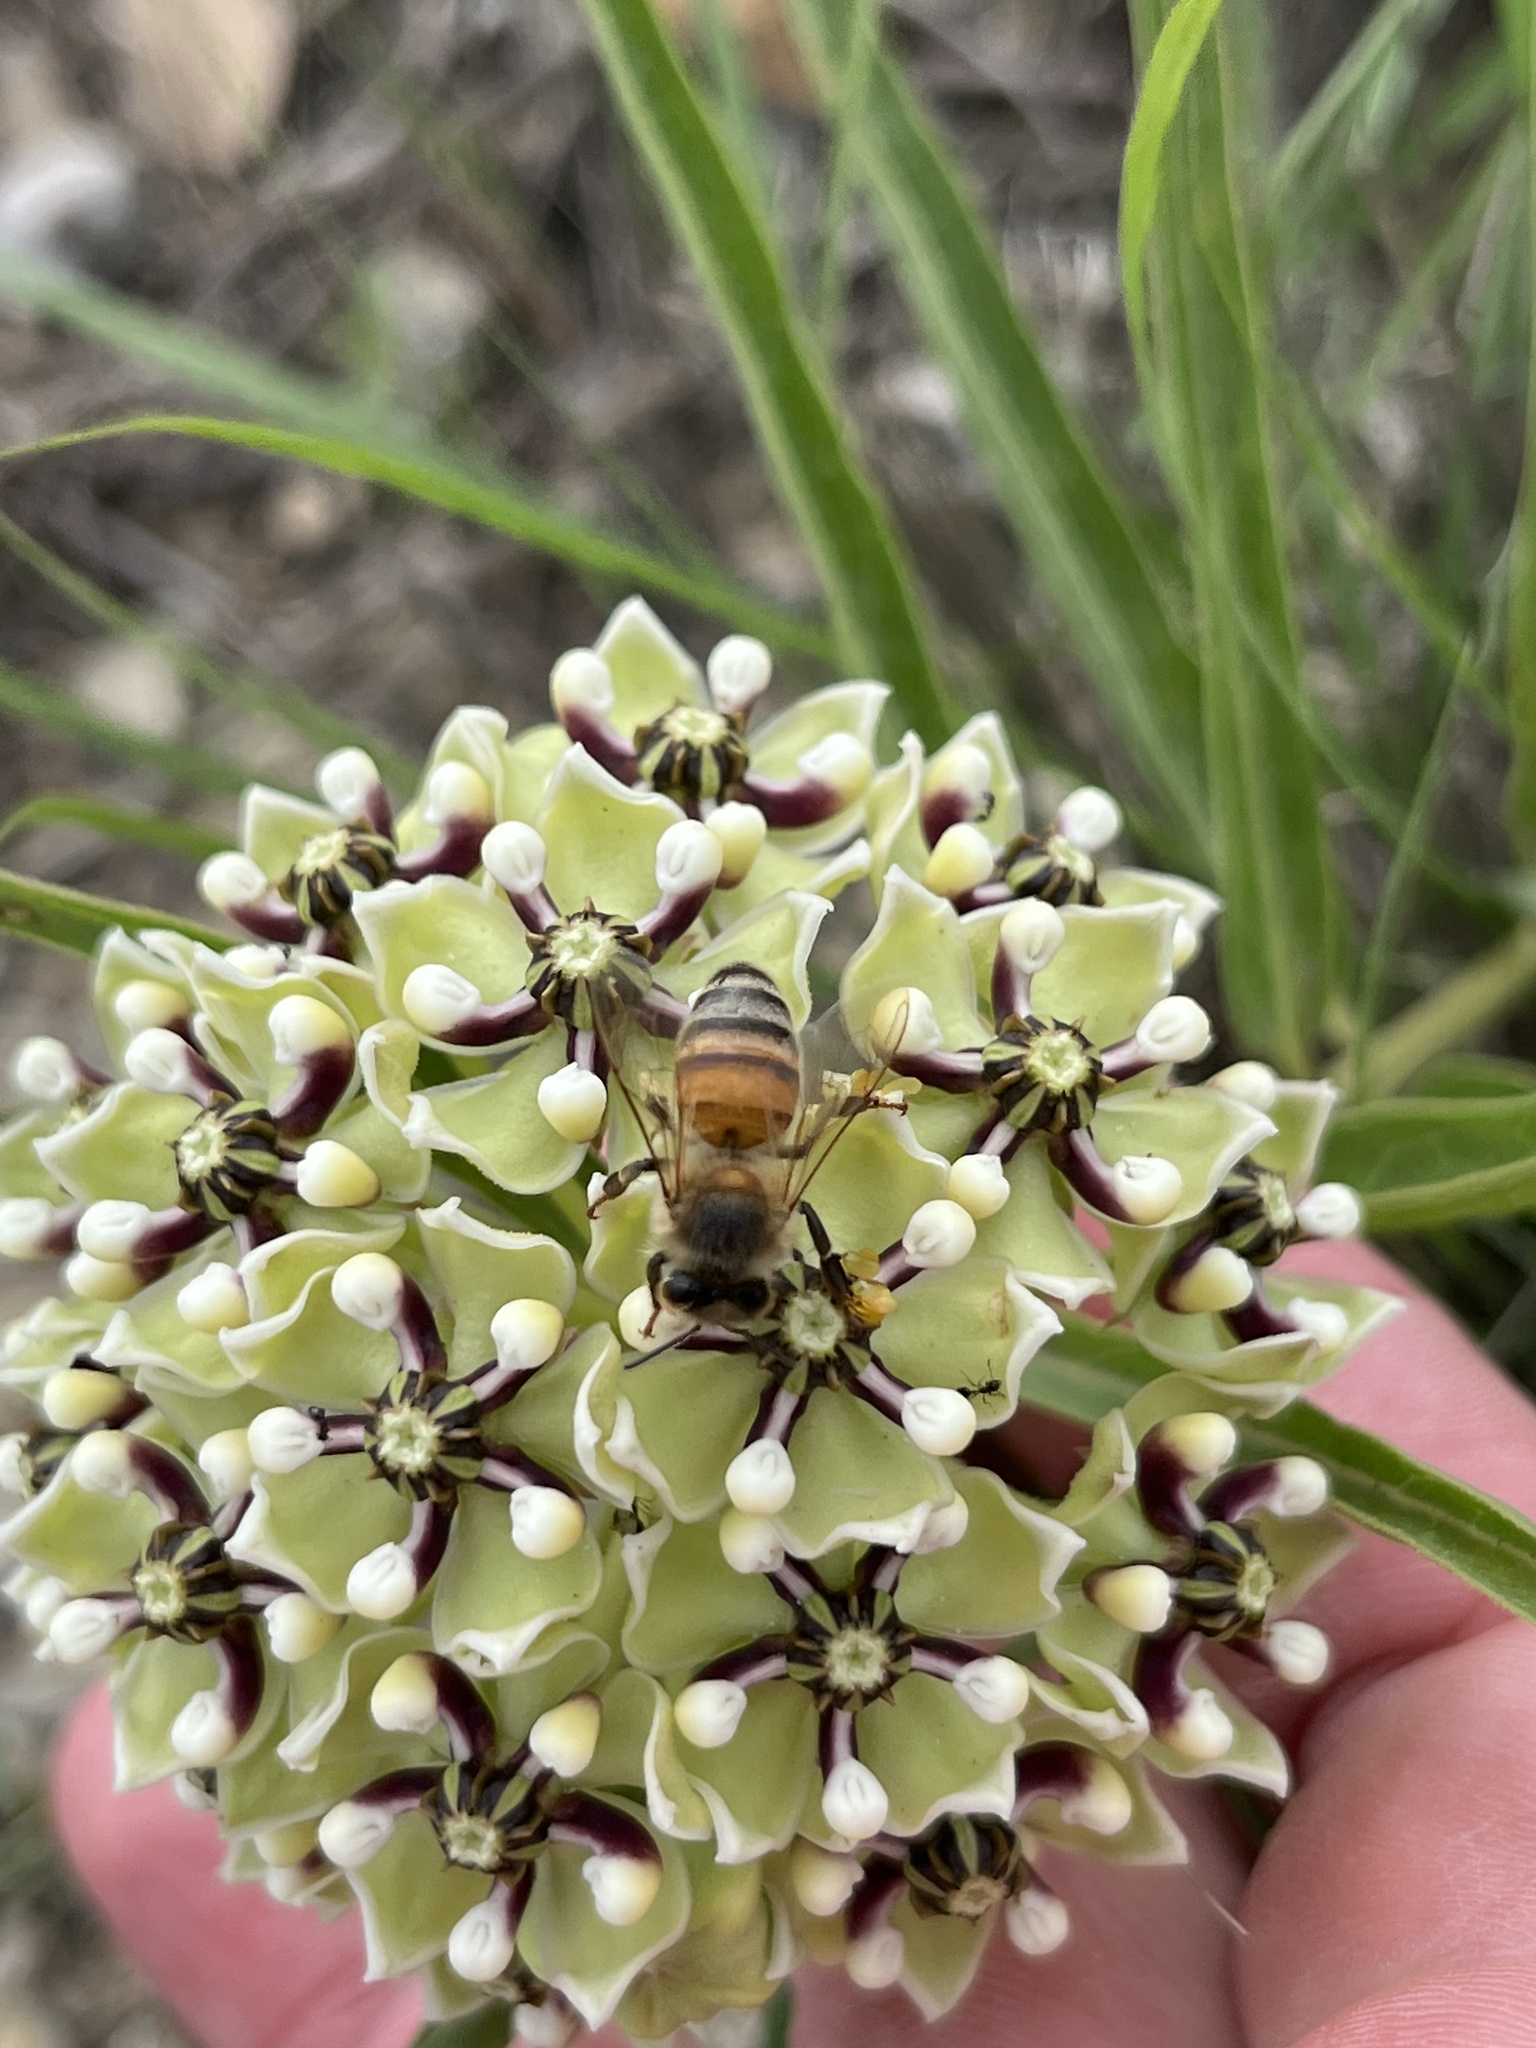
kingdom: Animalia
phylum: Arthropoda
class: Insecta
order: Hymenoptera
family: Apidae
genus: Apis
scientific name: Apis mellifera
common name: Honey bee
